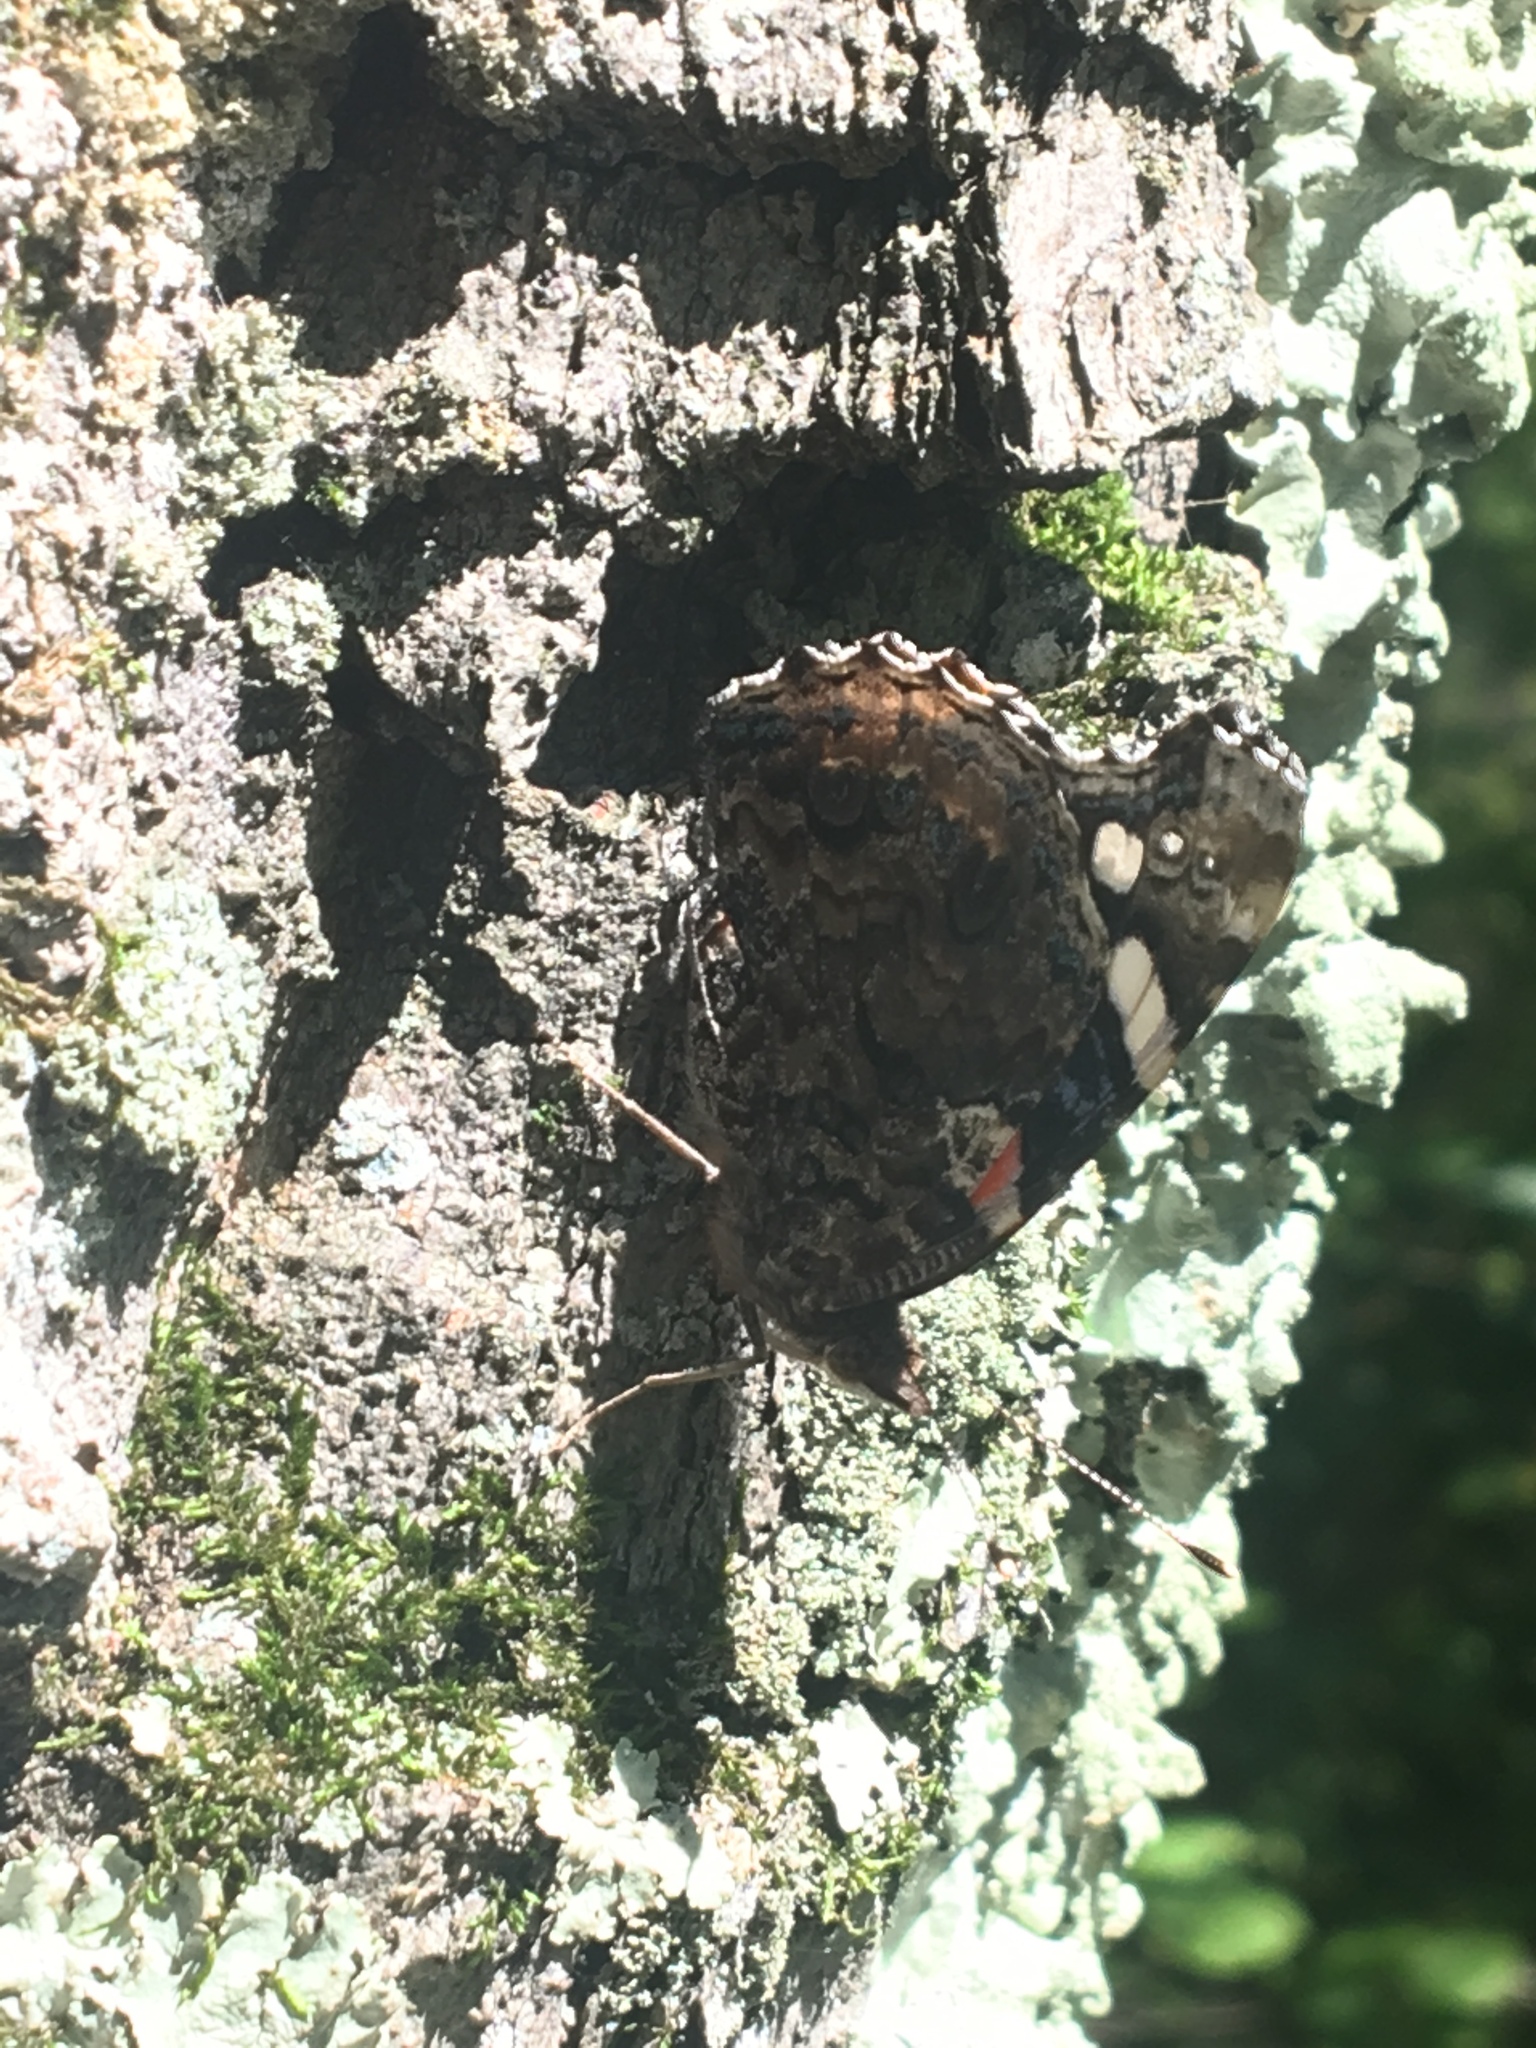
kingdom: Animalia
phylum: Arthropoda
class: Insecta
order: Lepidoptera
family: Nymphalidae
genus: Vanessa
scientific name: Vanessa atalanta
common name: Red admiral
